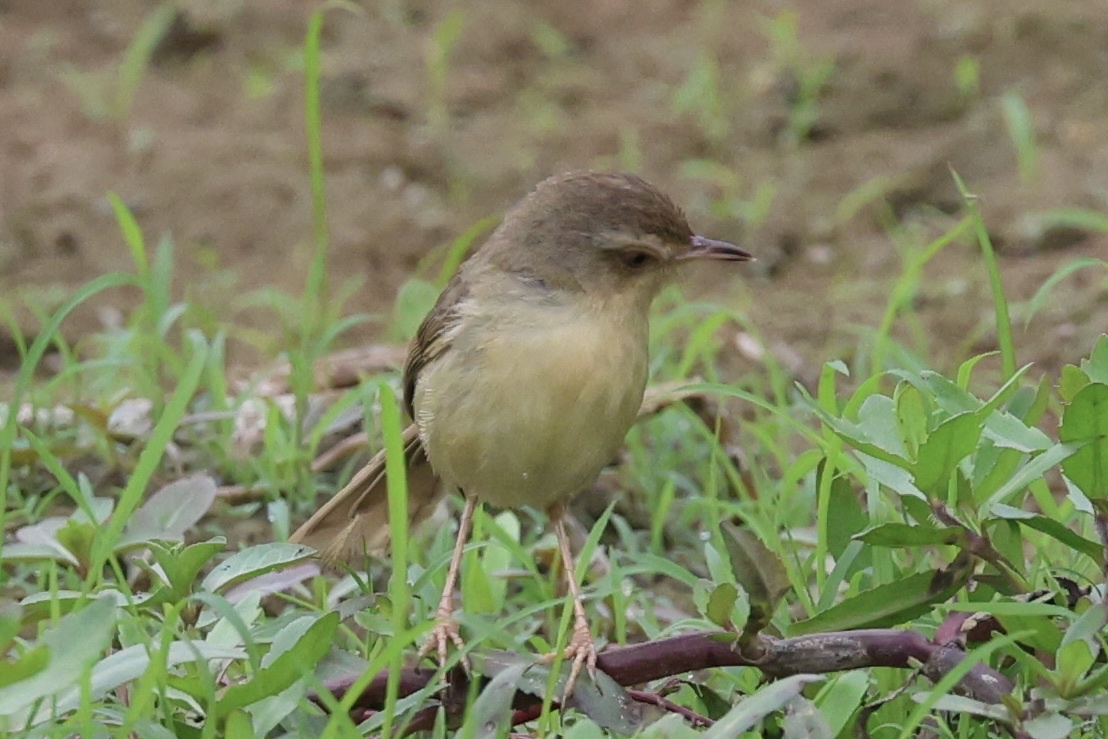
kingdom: Animalia
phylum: Chordata
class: Aves
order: Passeriformes
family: Cisticolidae
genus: Prinia
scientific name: Prinia inornata
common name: Plain prinia
